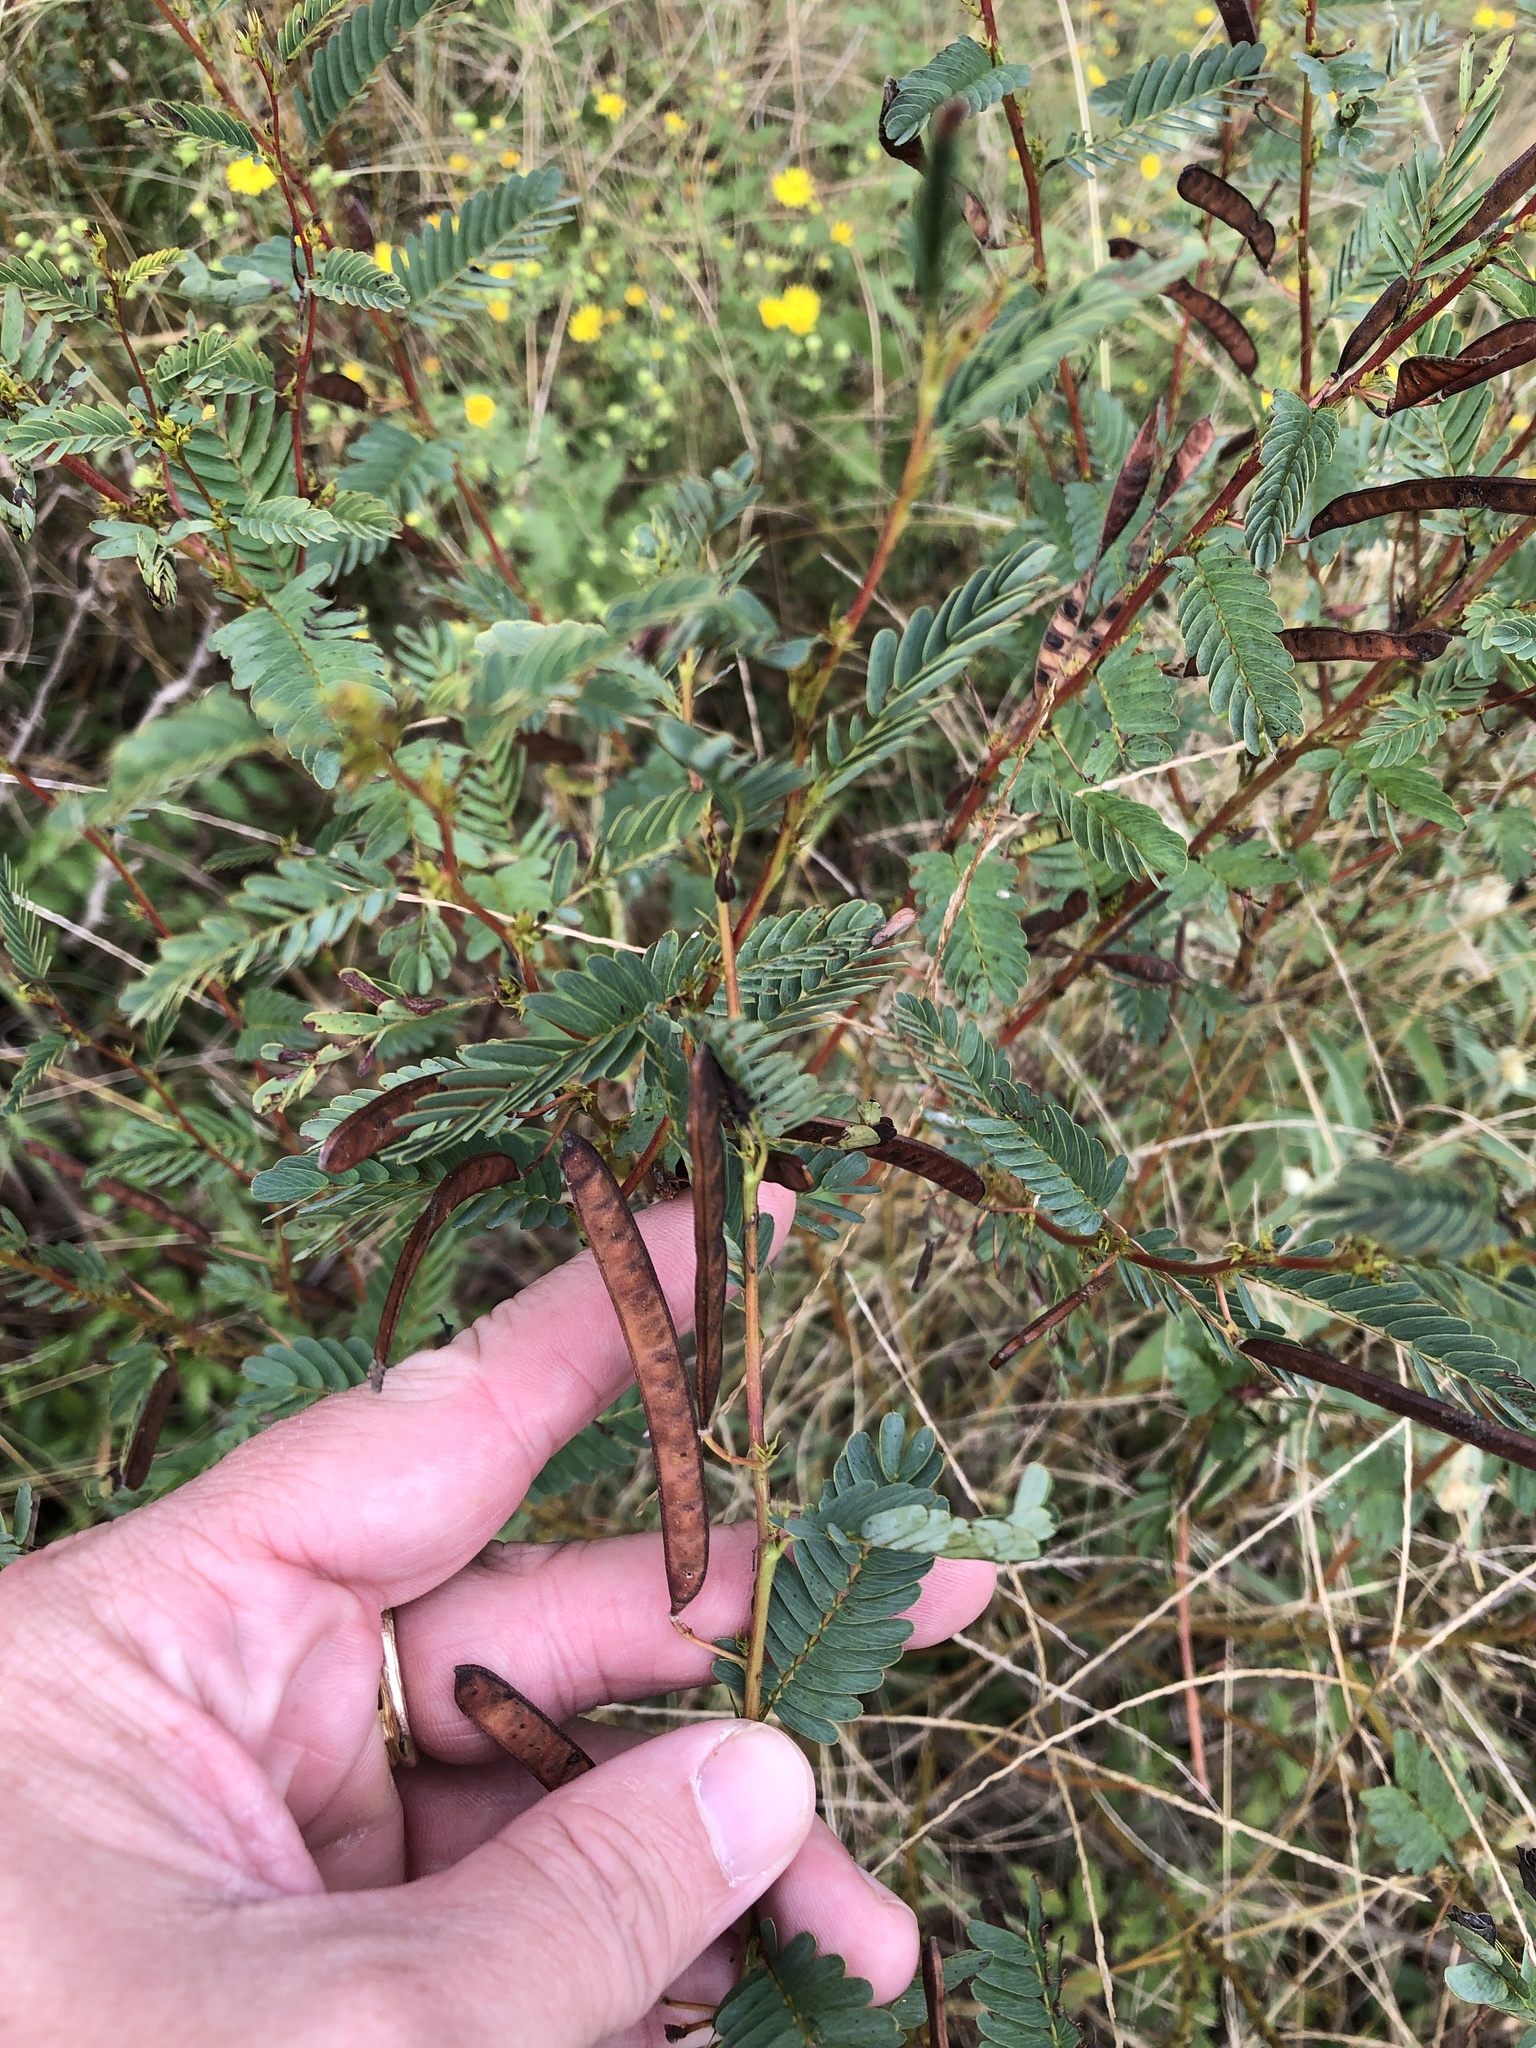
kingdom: Plantae
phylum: Tracheophyta
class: Magnoliopsida
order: Fabales
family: Fabaceae
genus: Chamaecrista
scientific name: Chamaecrista fasciculata
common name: Golden cassia
